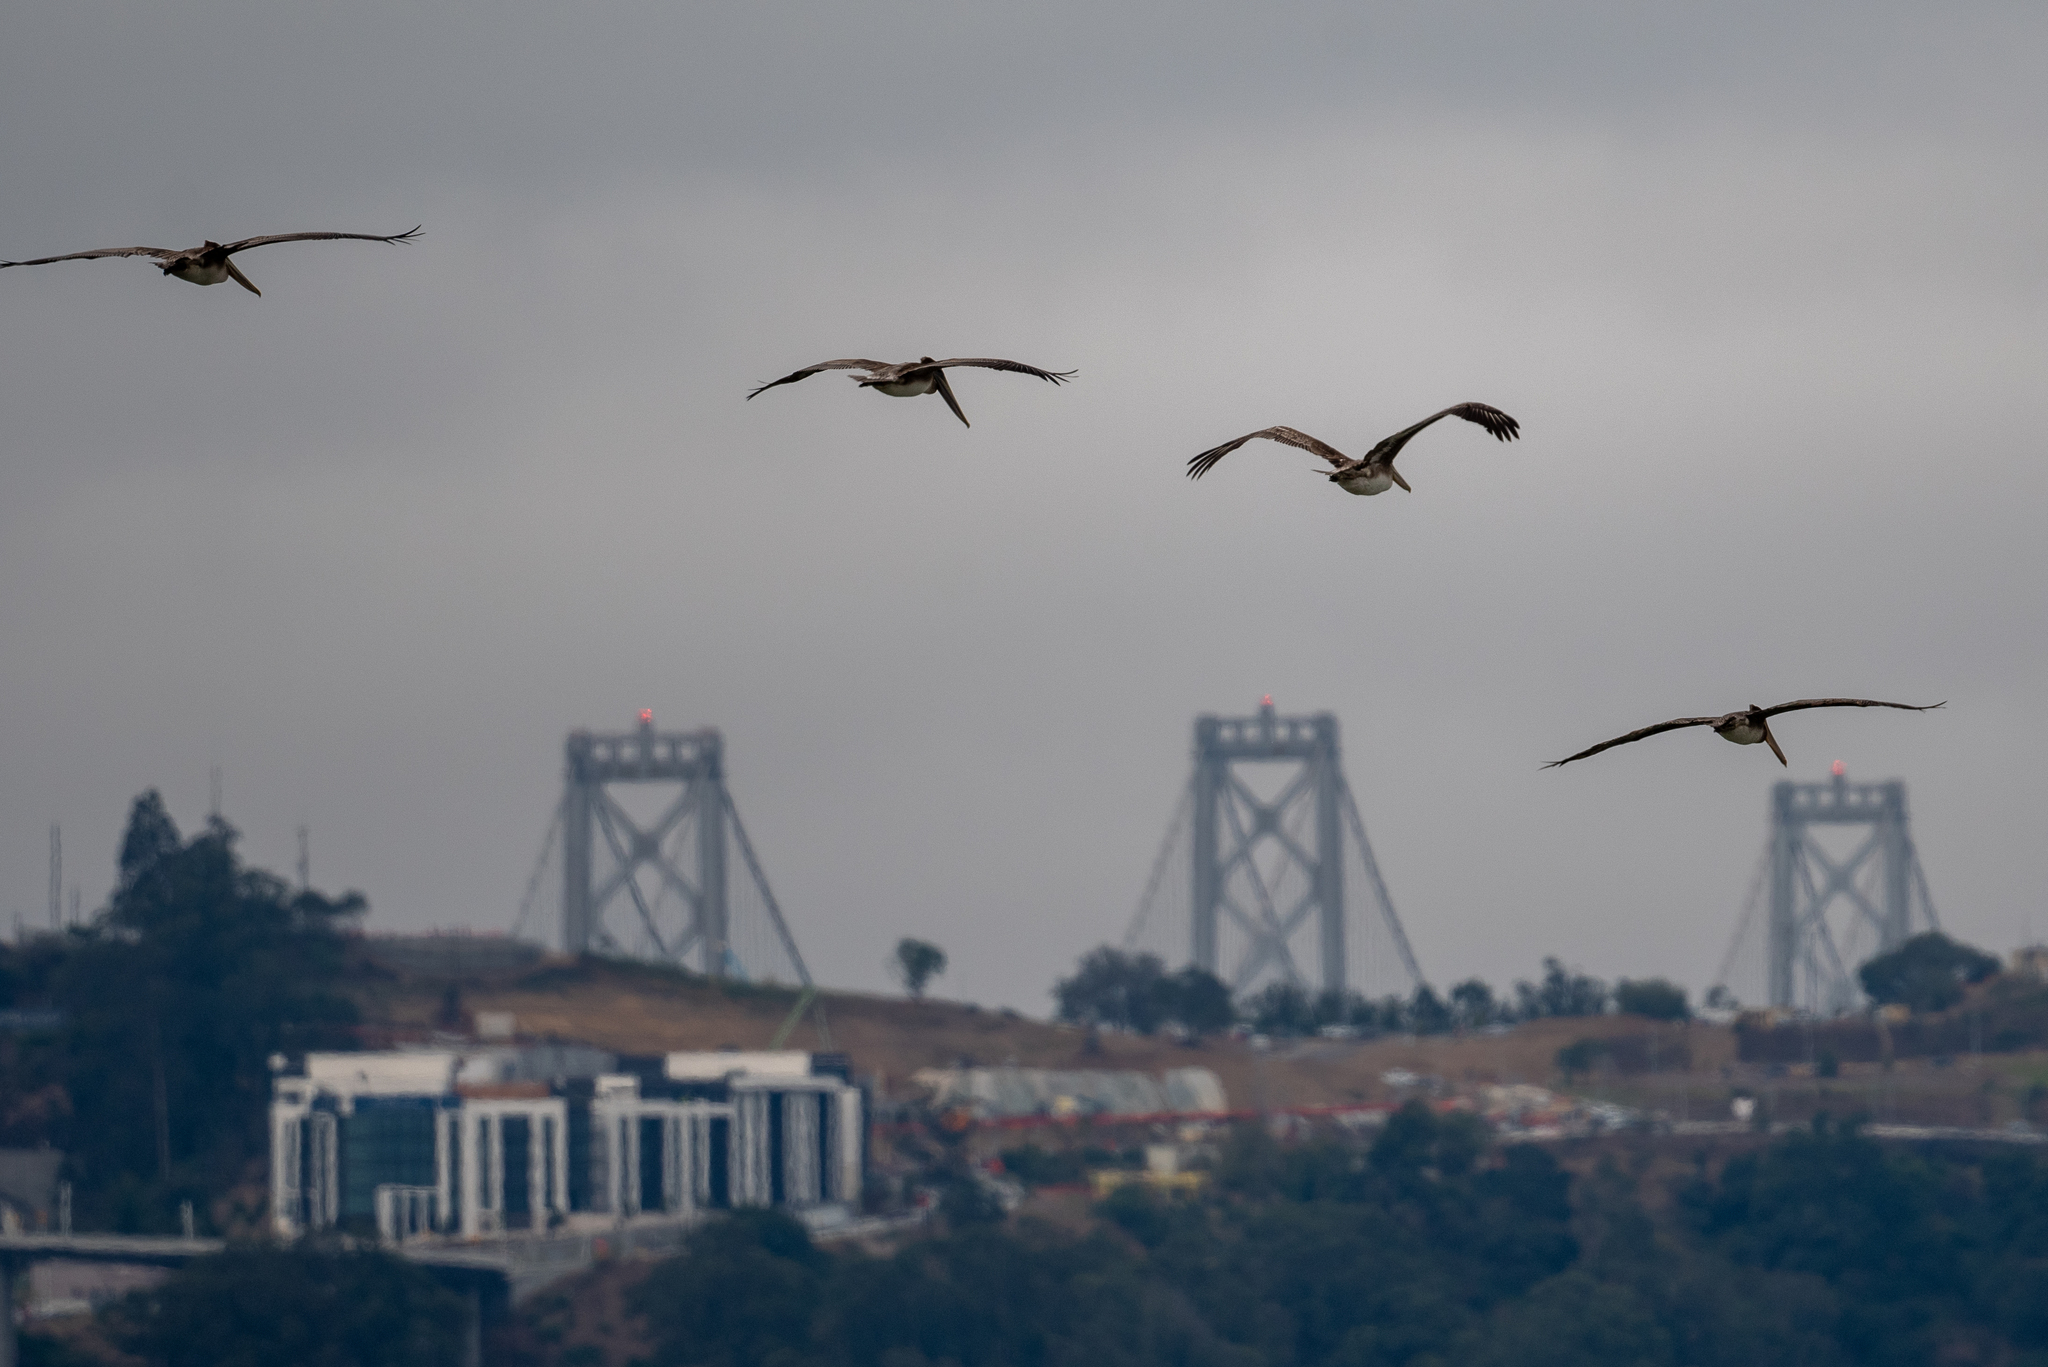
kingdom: Animalia
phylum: Chordata
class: Aves
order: Pelecaniformes
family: Pelecanidae
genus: Pelecanus
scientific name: Pelecanus occidentalis
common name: Brown pelican
